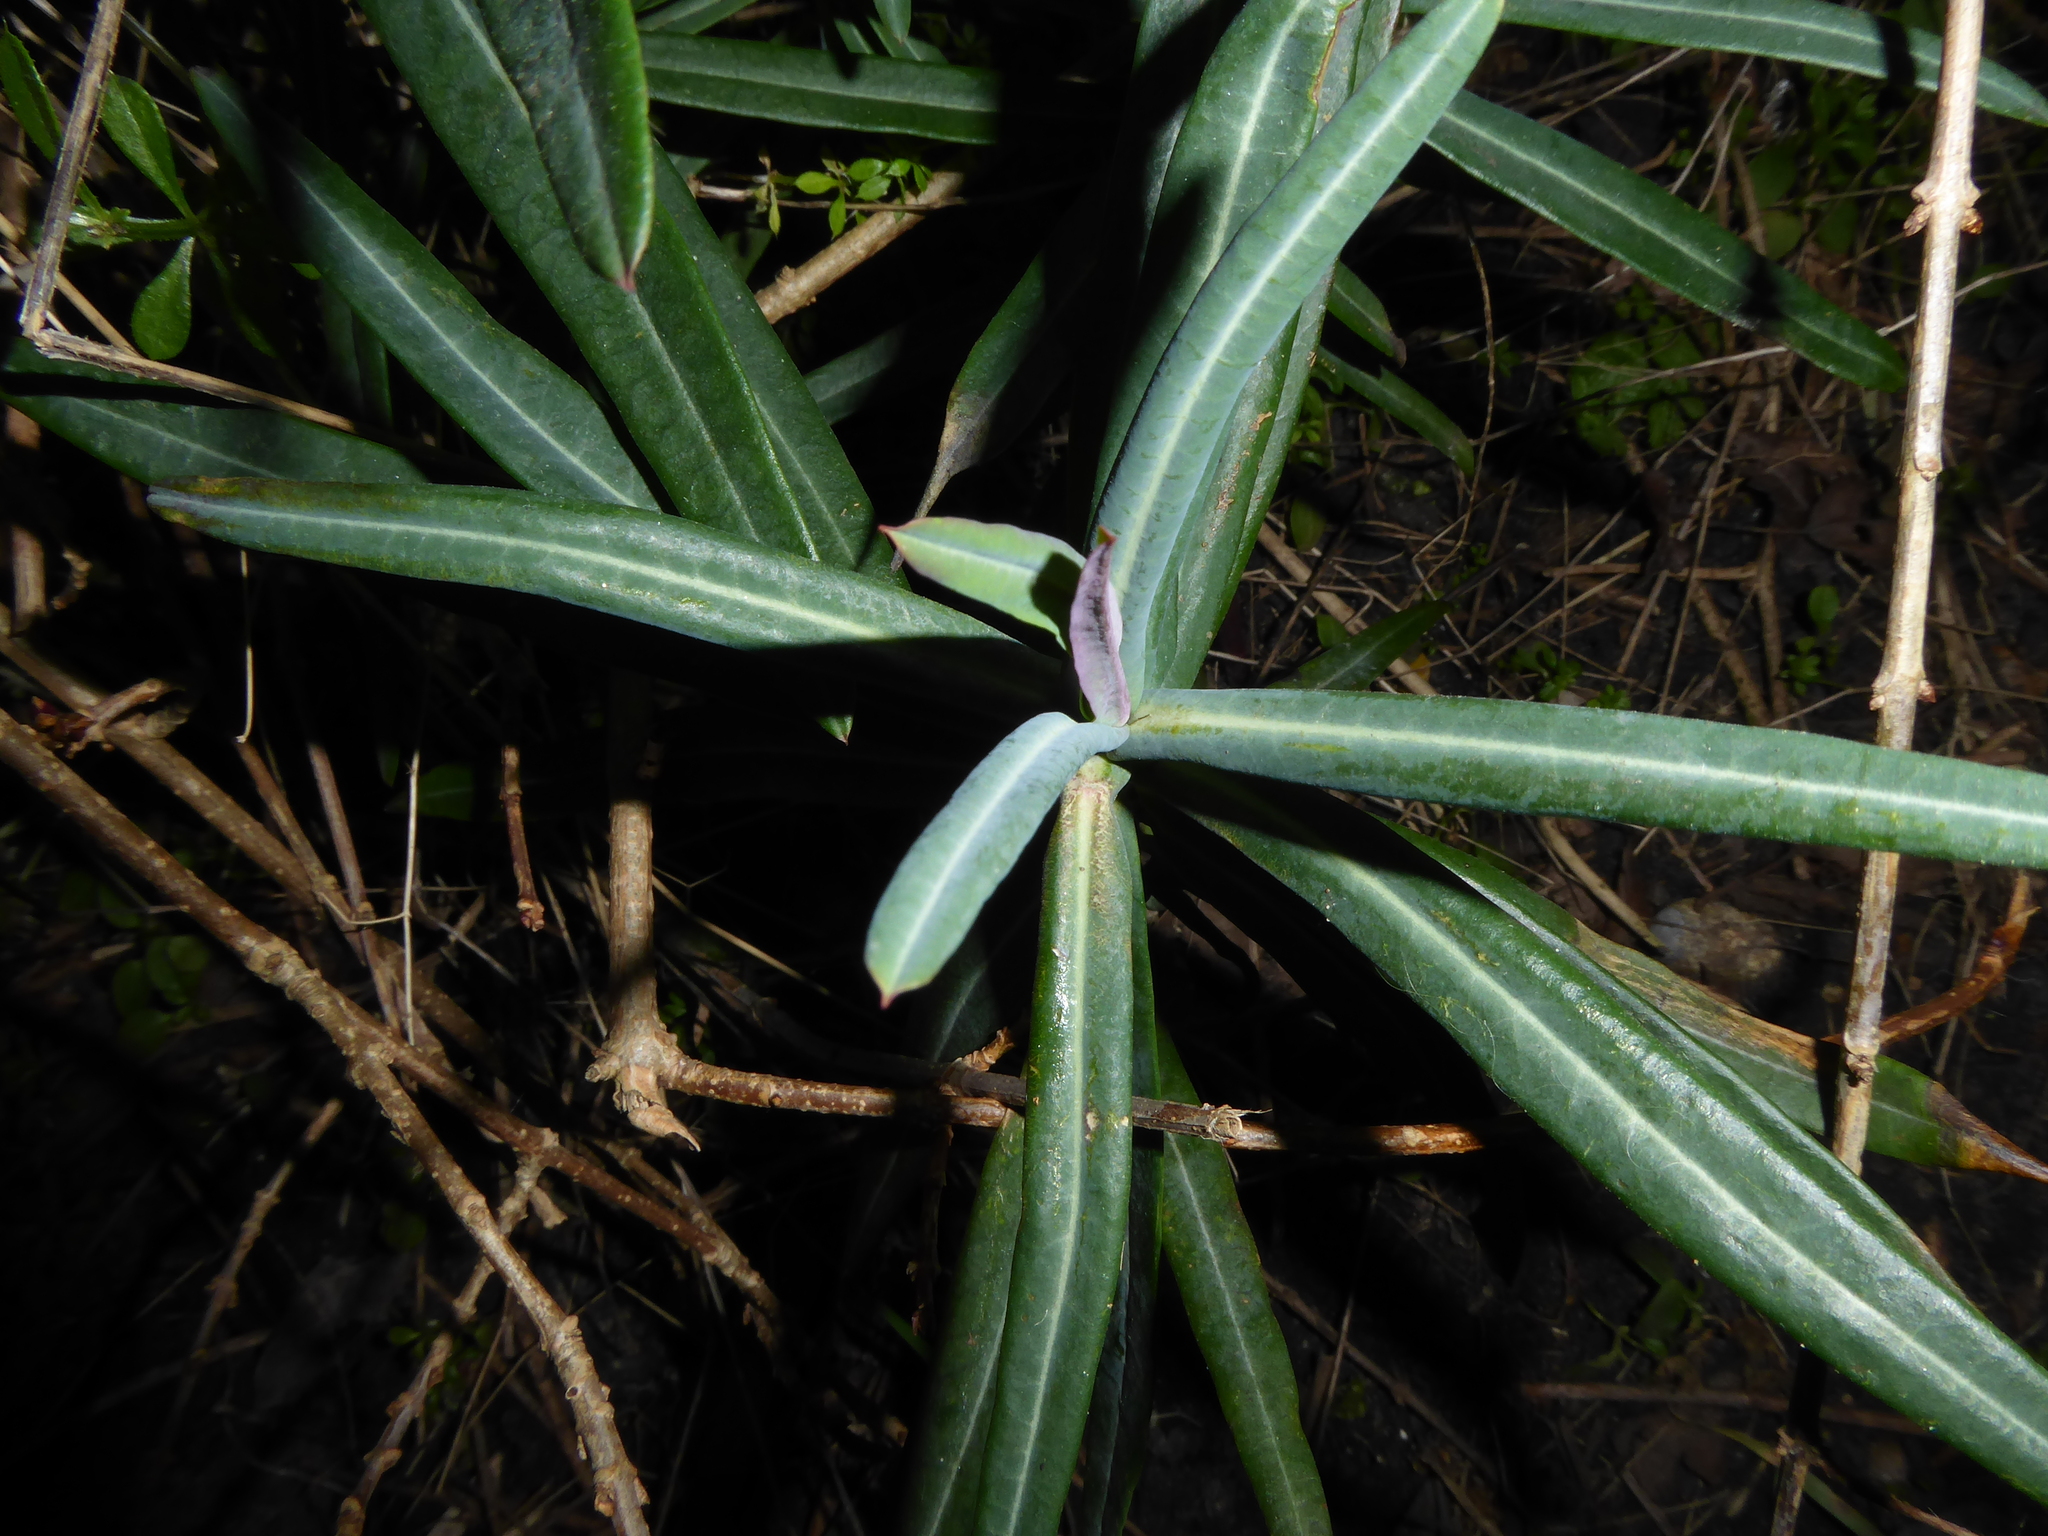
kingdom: Plantae
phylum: Tracheophyta
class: Magnoliopsida
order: Malpighiales
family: Euphorbiaceae
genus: Euphorbia
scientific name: Euphorbia lathyris
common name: Caper spurge
